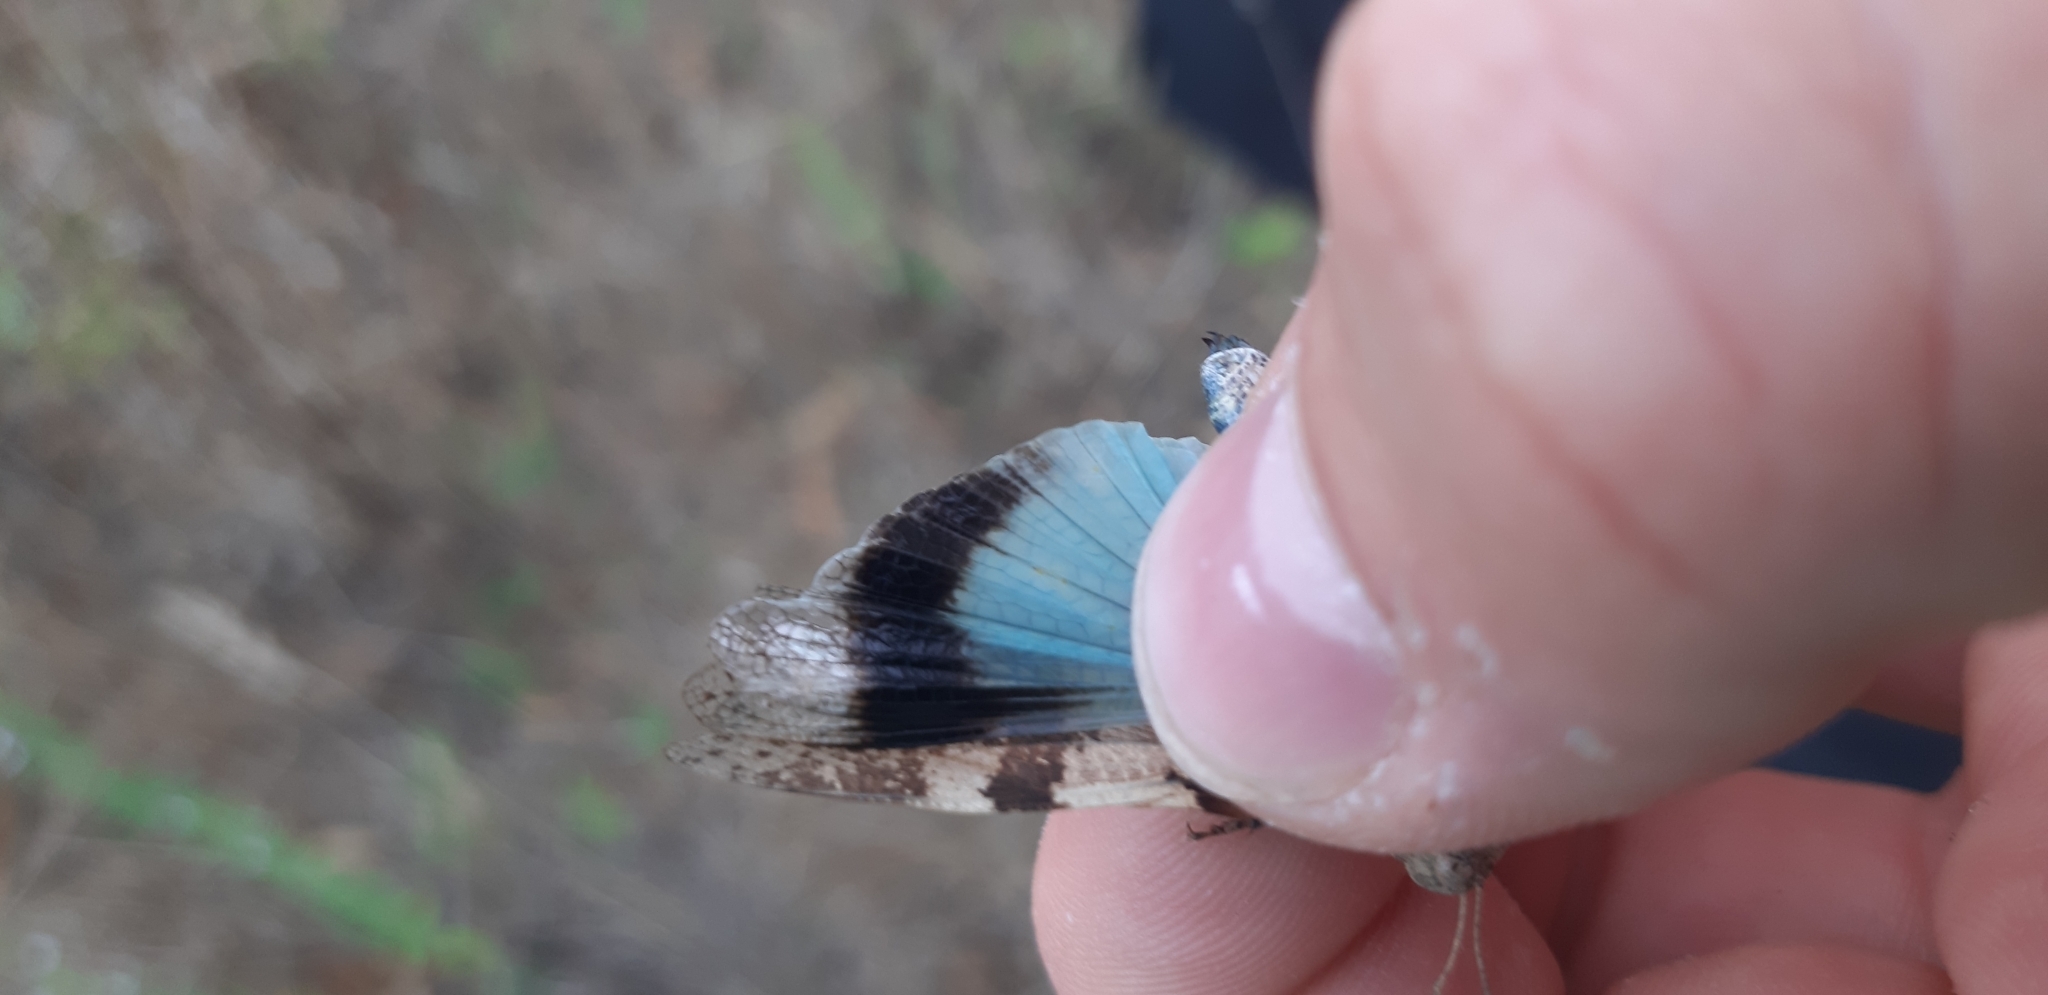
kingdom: Animalia
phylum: Arthropoda
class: Insecta
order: Orthoptera
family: Acrididae
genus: Oedipoda
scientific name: Oedipoda caerulescens
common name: Blue-winged grasshopper
